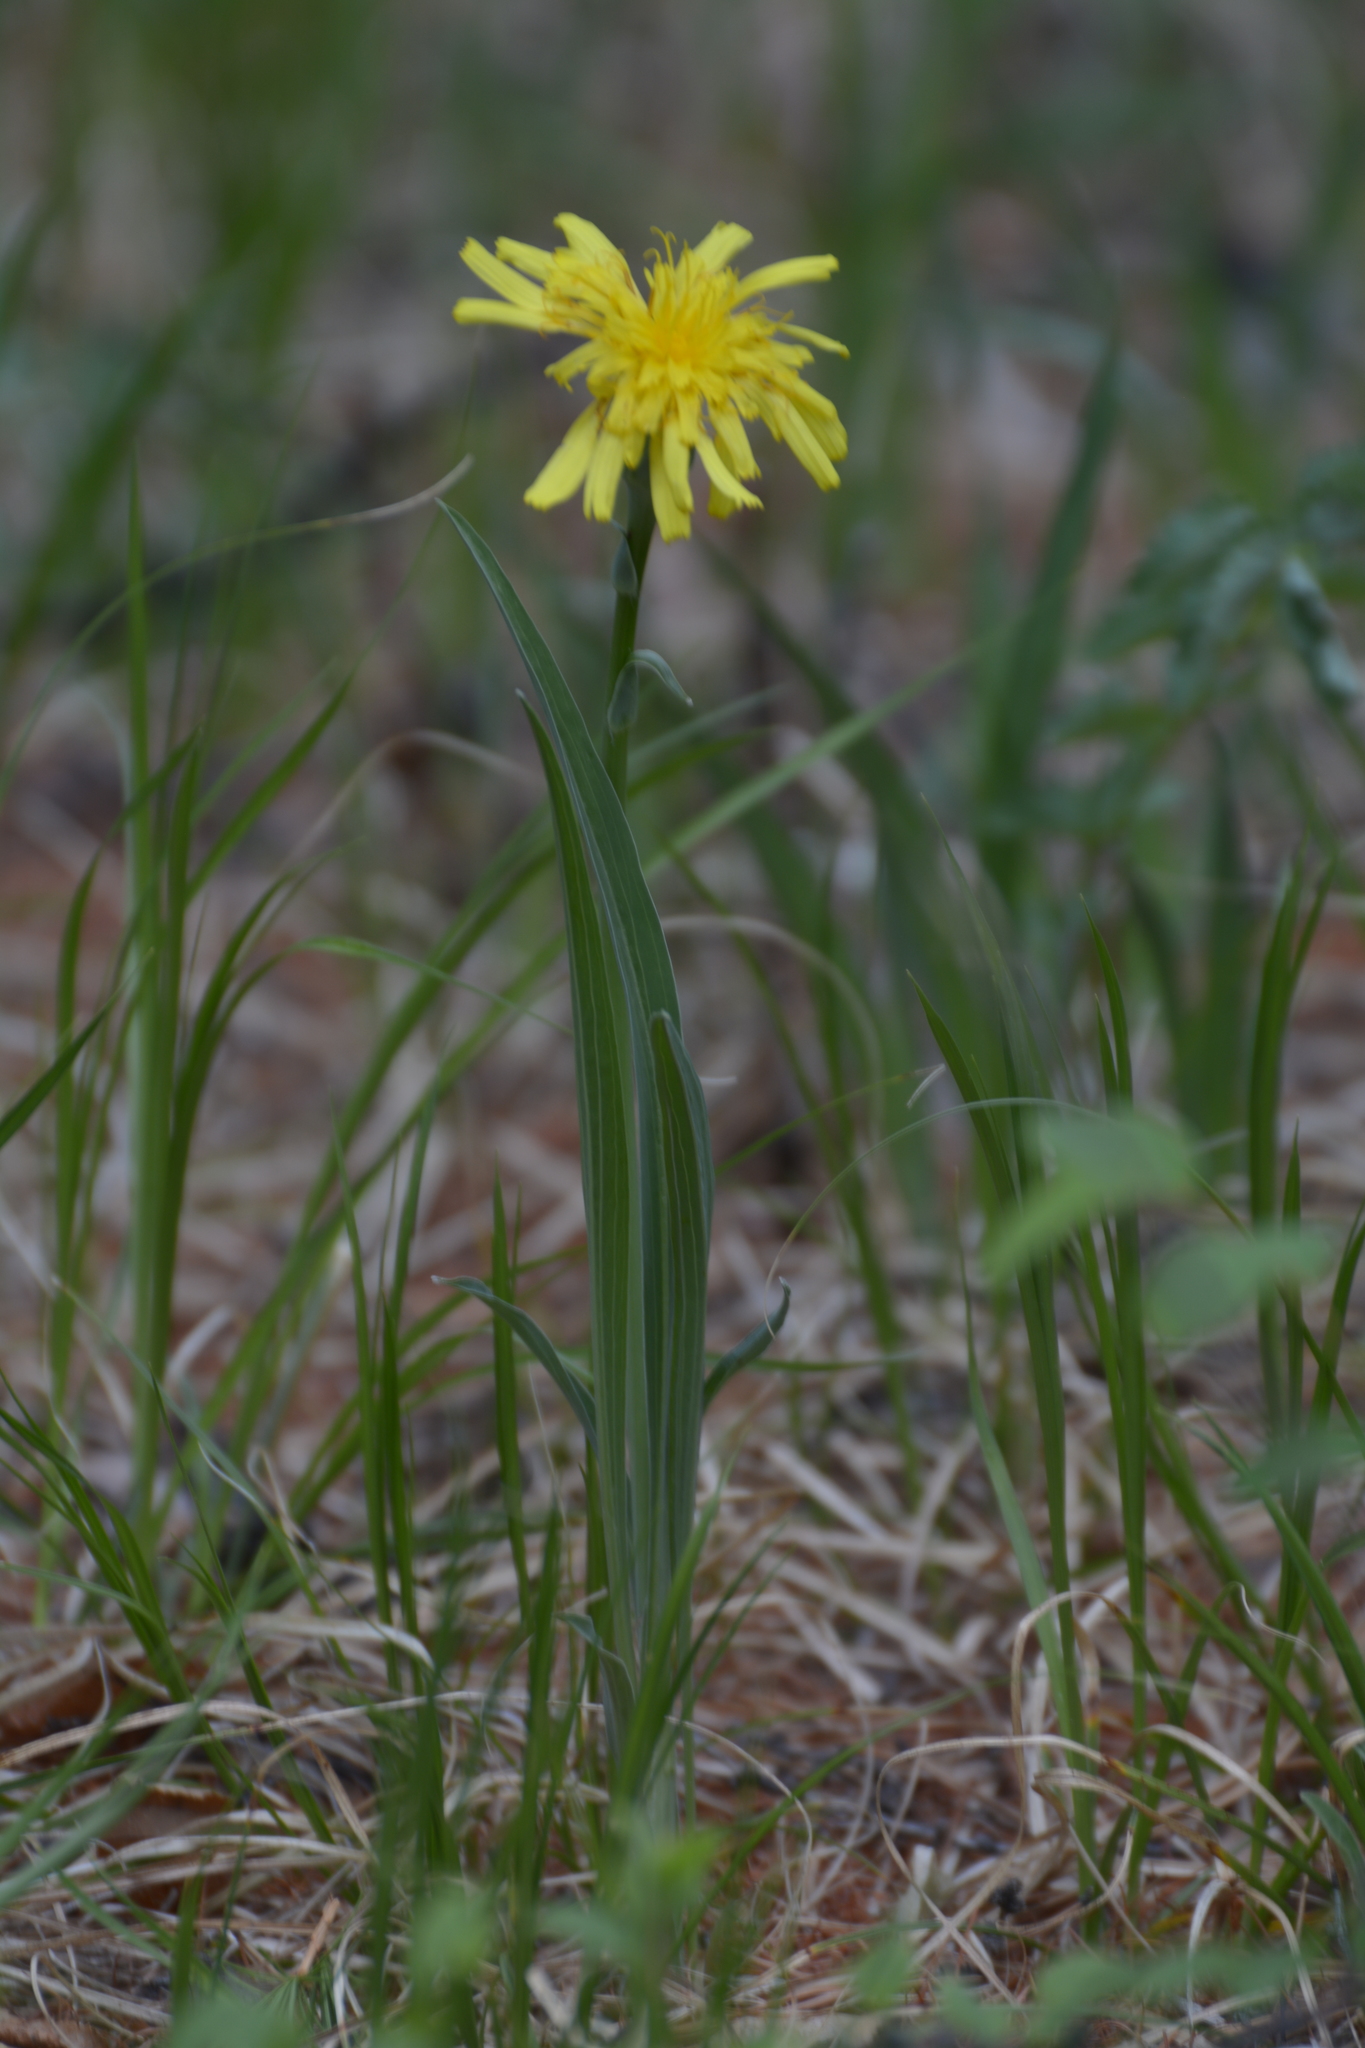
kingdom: Plantae
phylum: Tracheophyta
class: Magnoliopsida
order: Asterales
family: Asteraceae
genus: Takhtajaniantha
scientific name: Takhtajaniantha austriaca
